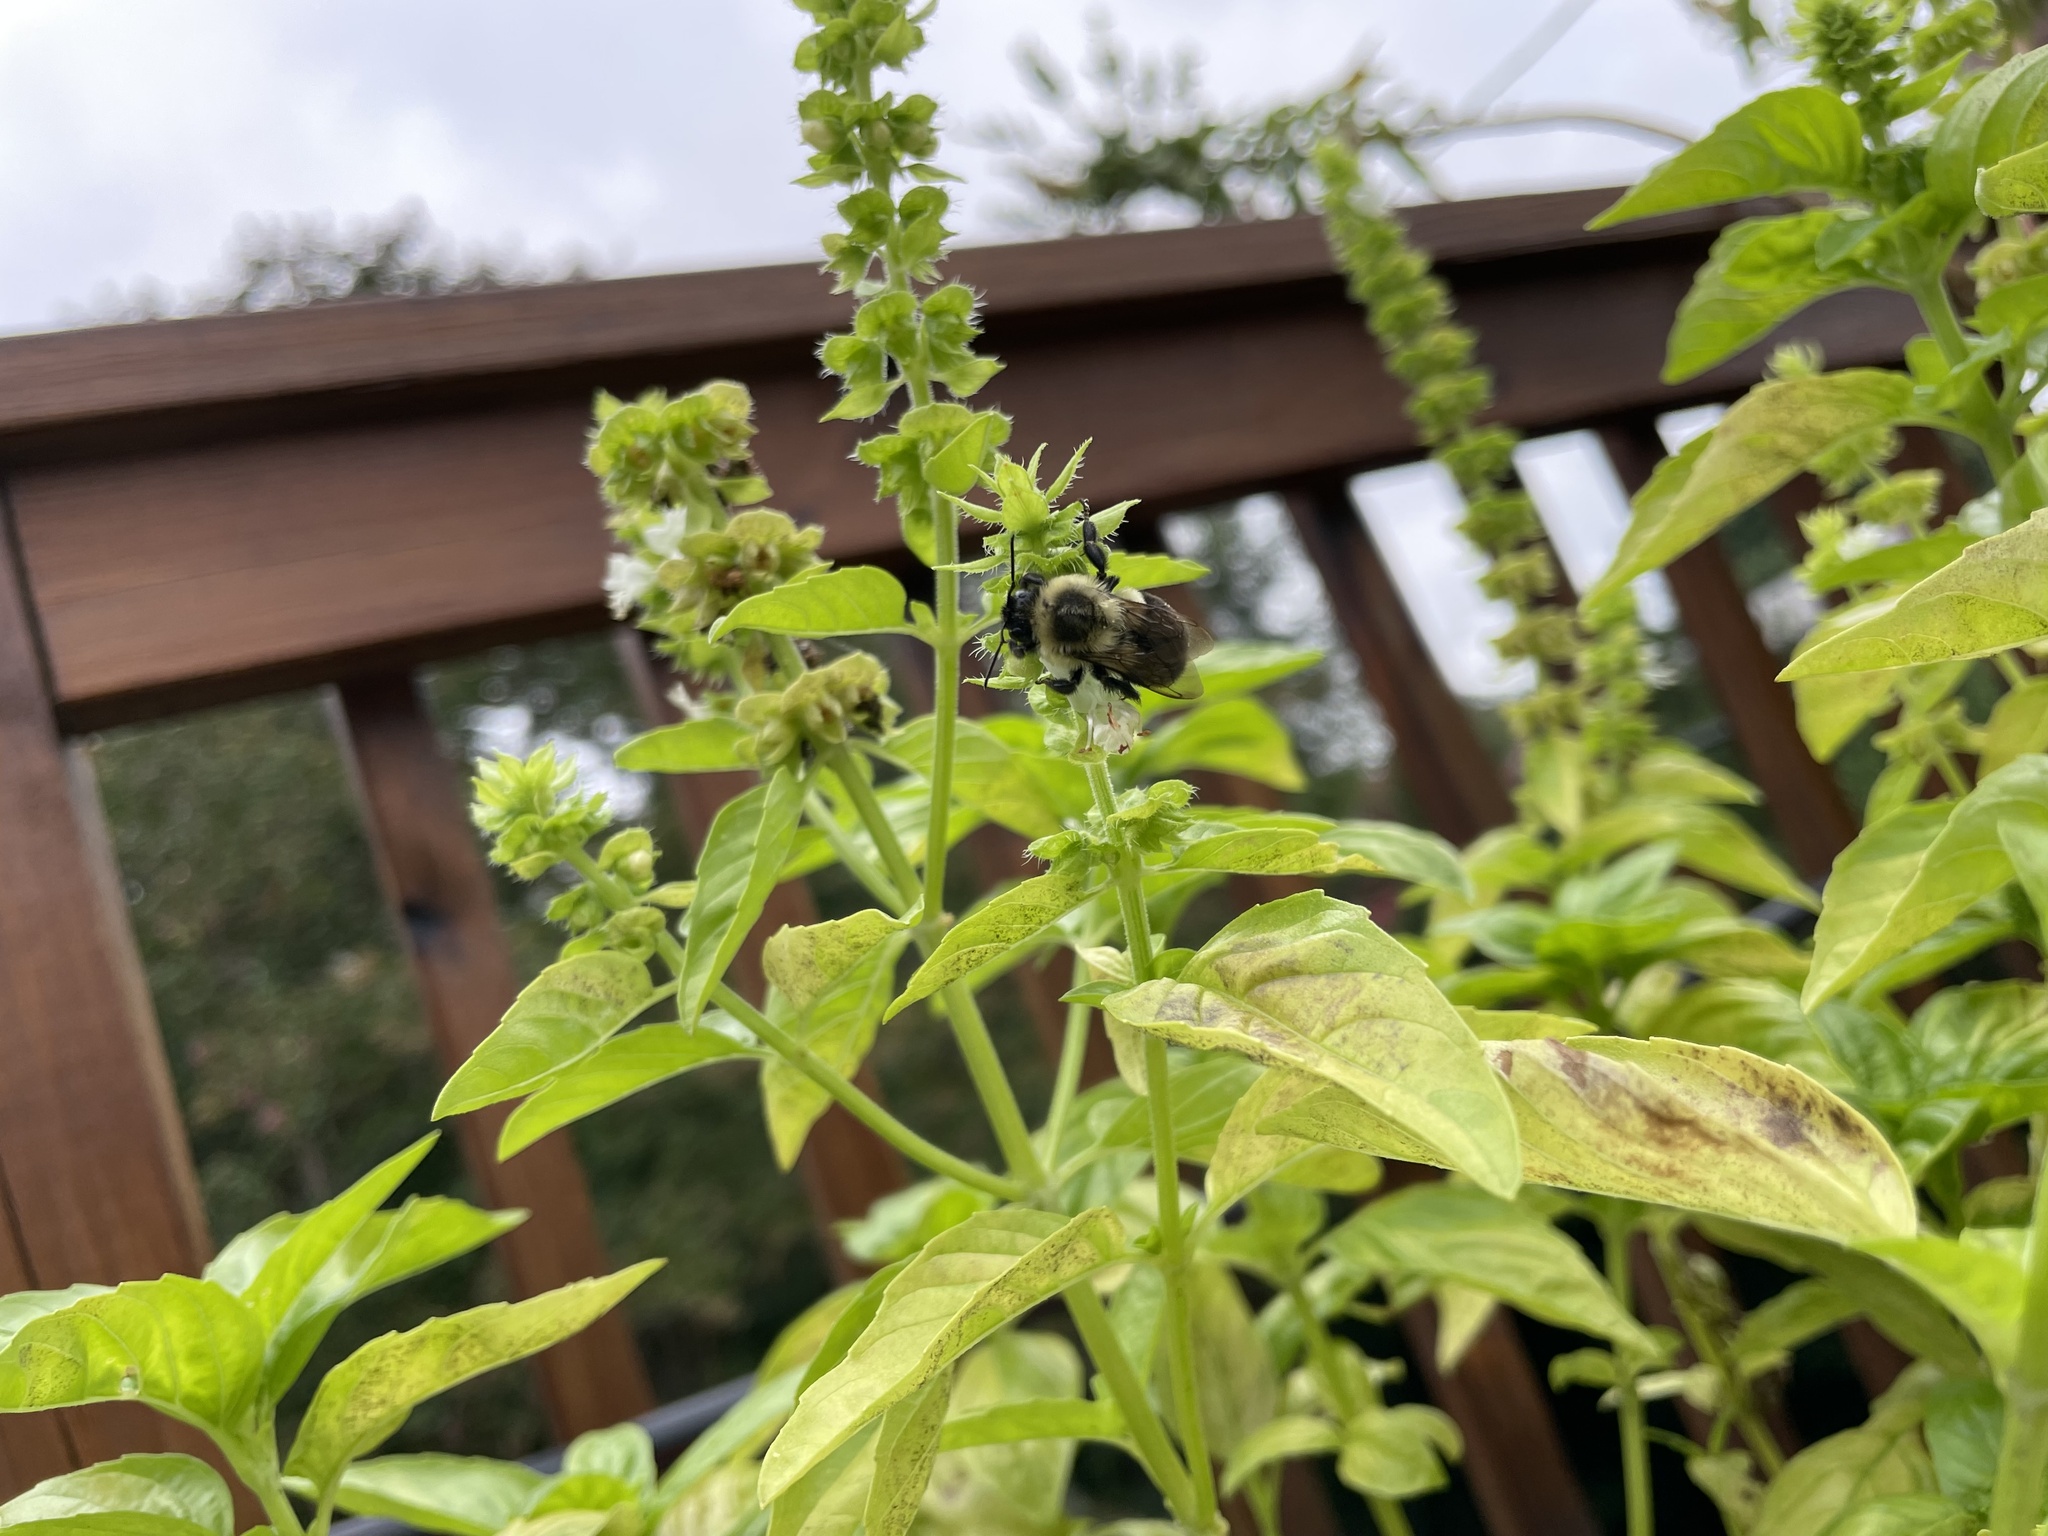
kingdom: Animalia
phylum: Arthropoda
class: Insecta
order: Hymenoptera
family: Apidae
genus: Bombus
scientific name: Bombus impatiens
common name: Common eastern bumble bee
